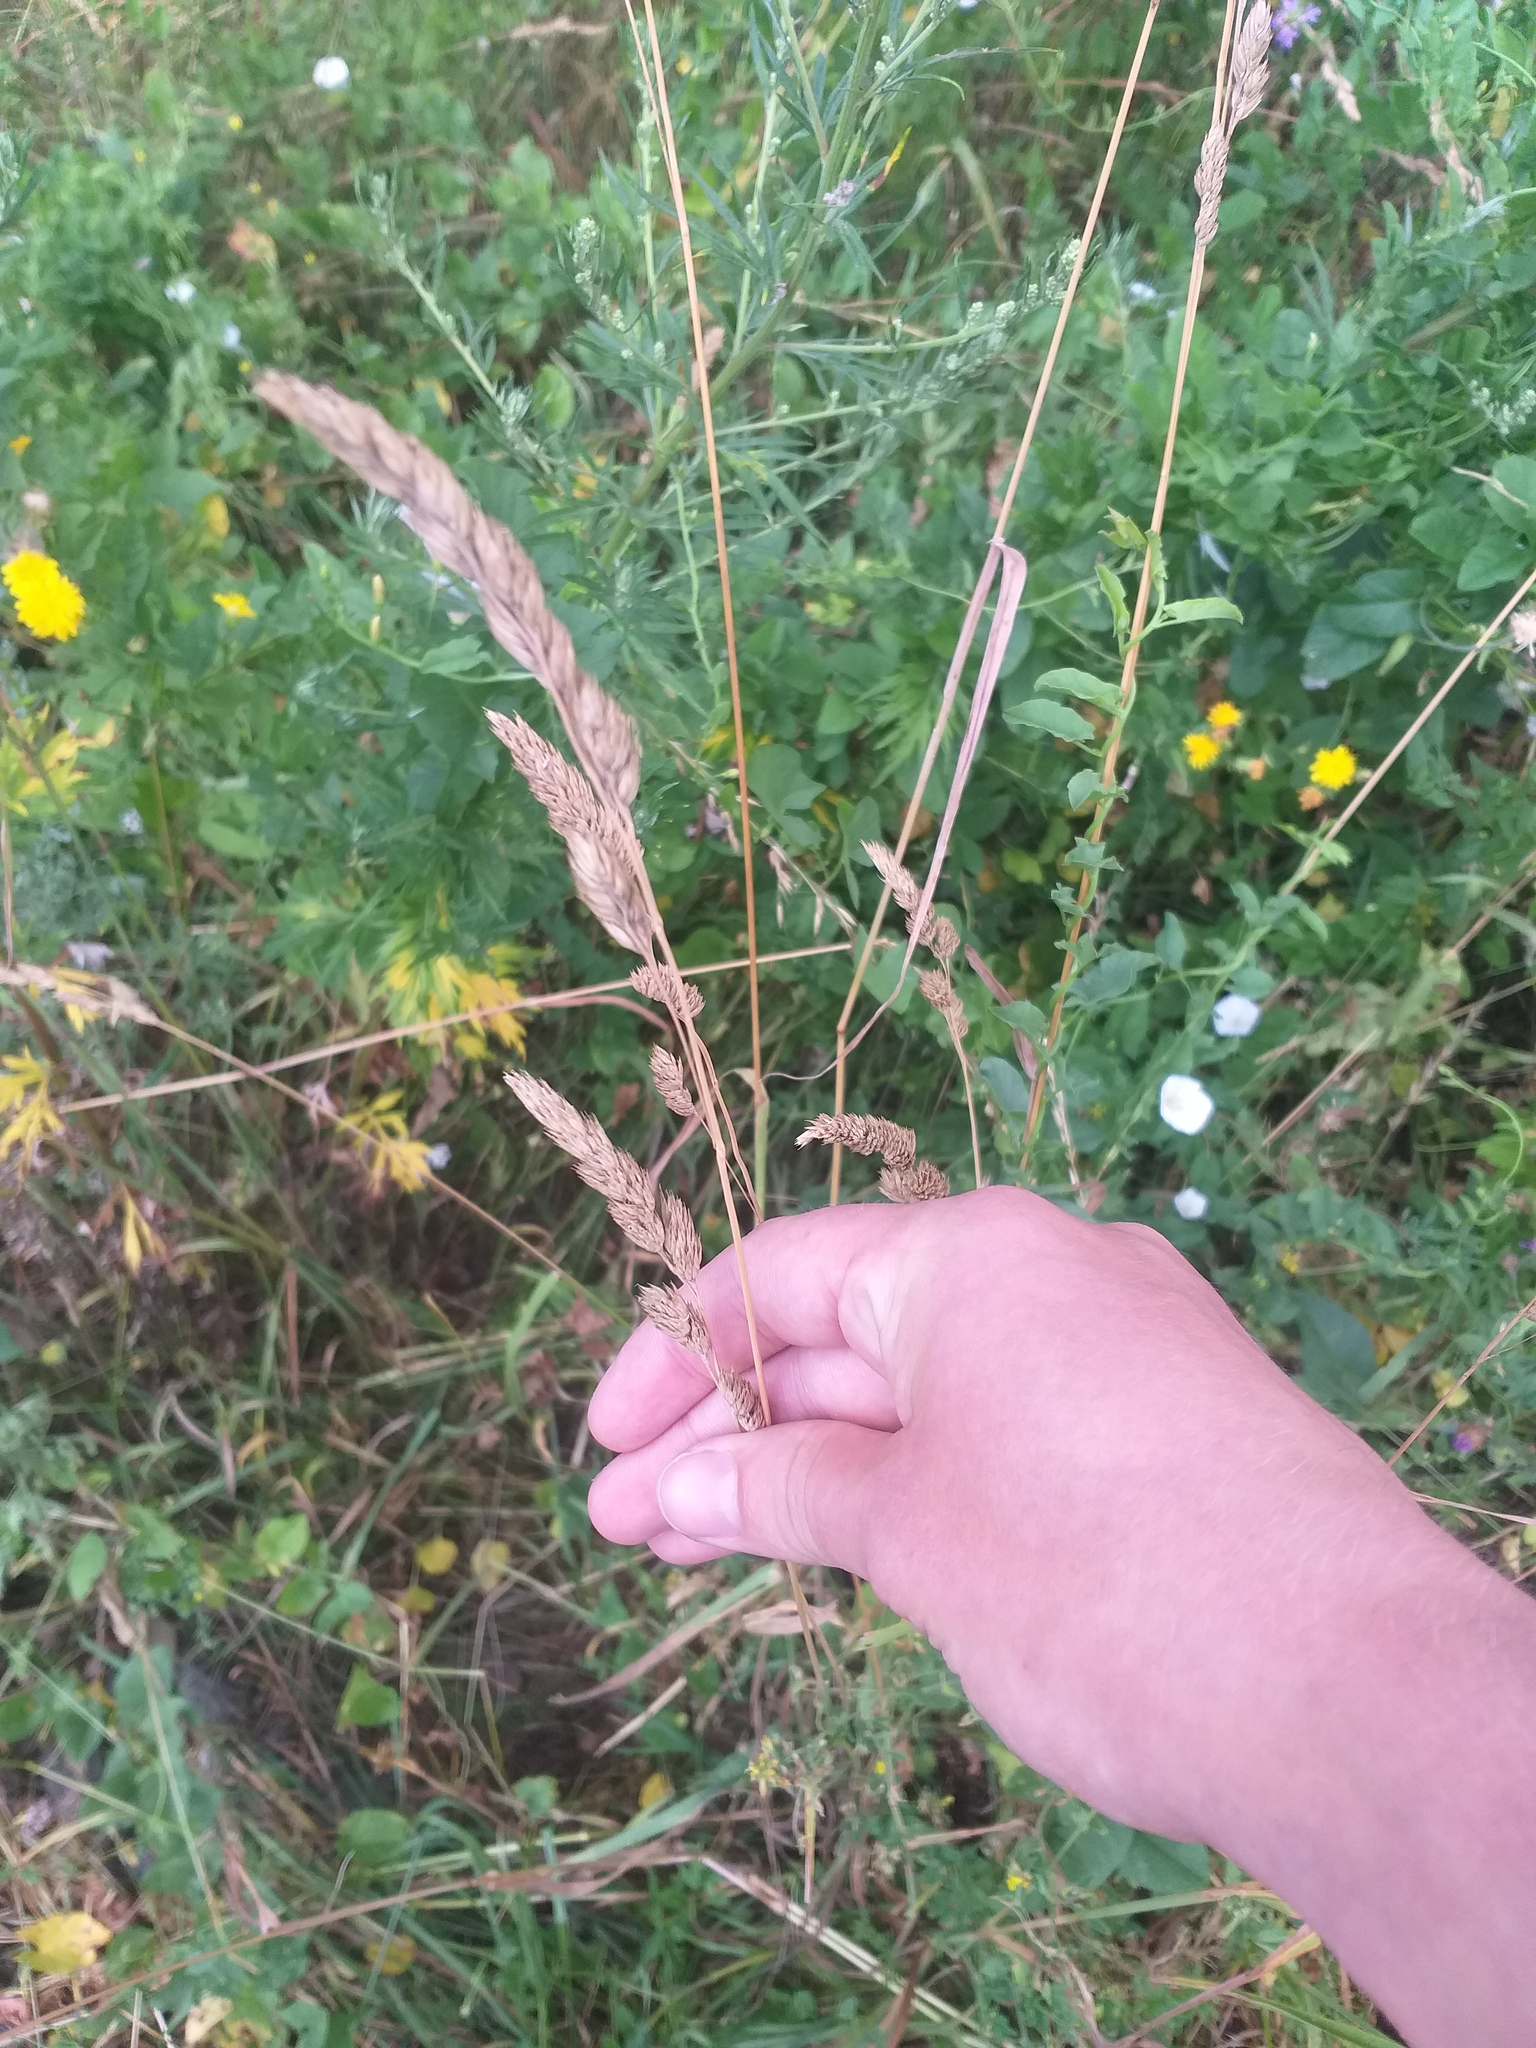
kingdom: Plantae
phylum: Tracheophyta
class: Liliopsida
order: Poales
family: Poaceae
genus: Dactylis
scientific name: Dactylis glomerata
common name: Orchardgrass
